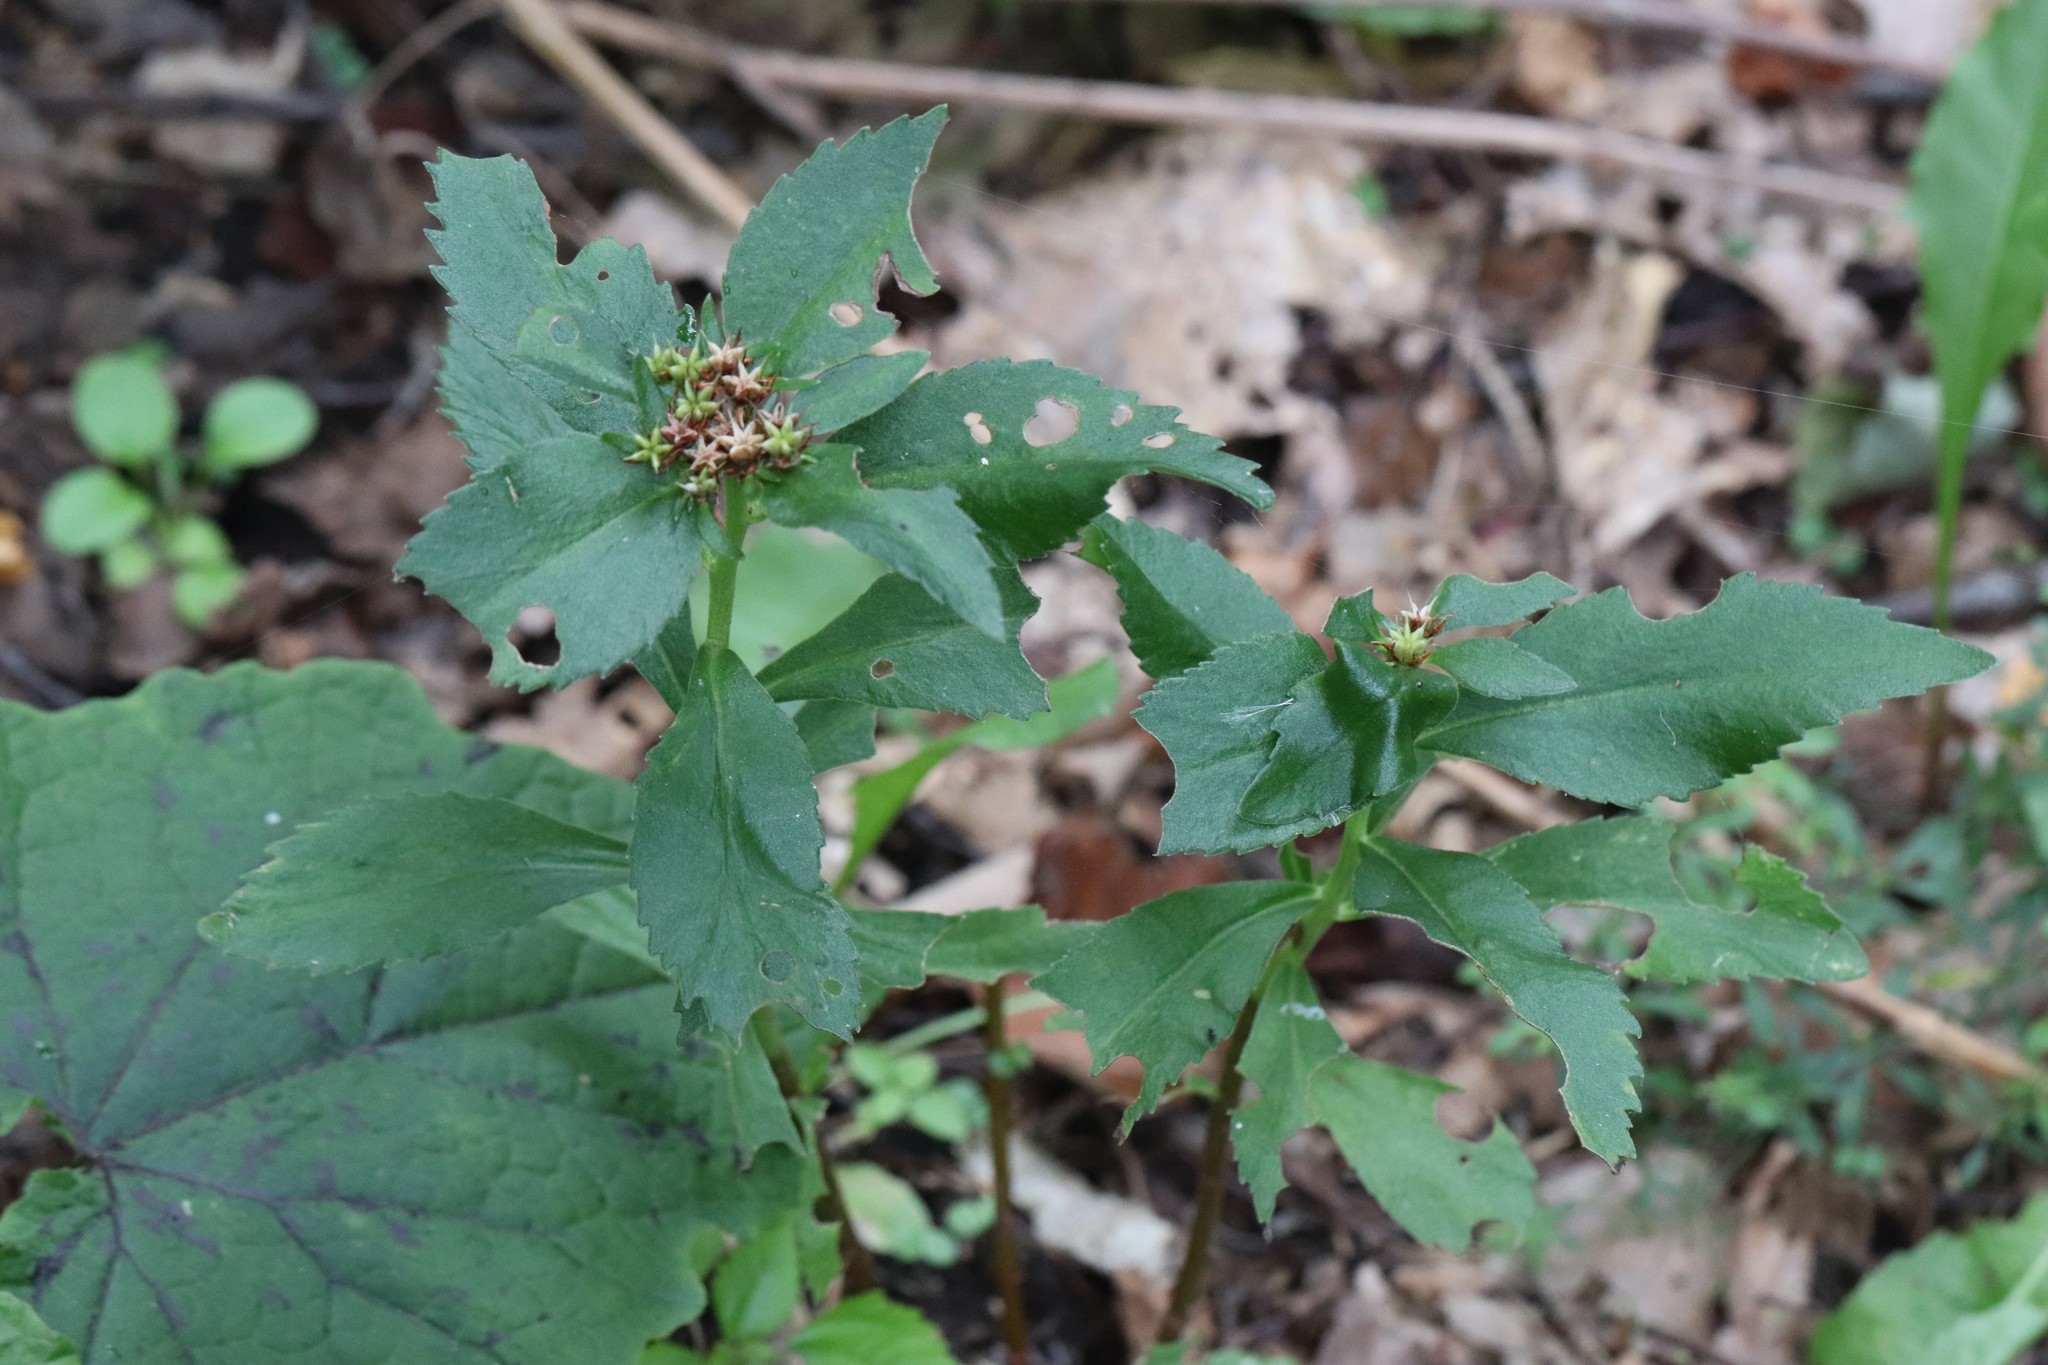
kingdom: Plantae
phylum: Tracheophyta
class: Magnoliopsida
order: Saxifragales
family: Crassulaceae
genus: Phedimus
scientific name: Phedimus aizoon
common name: Orpin aizoon
